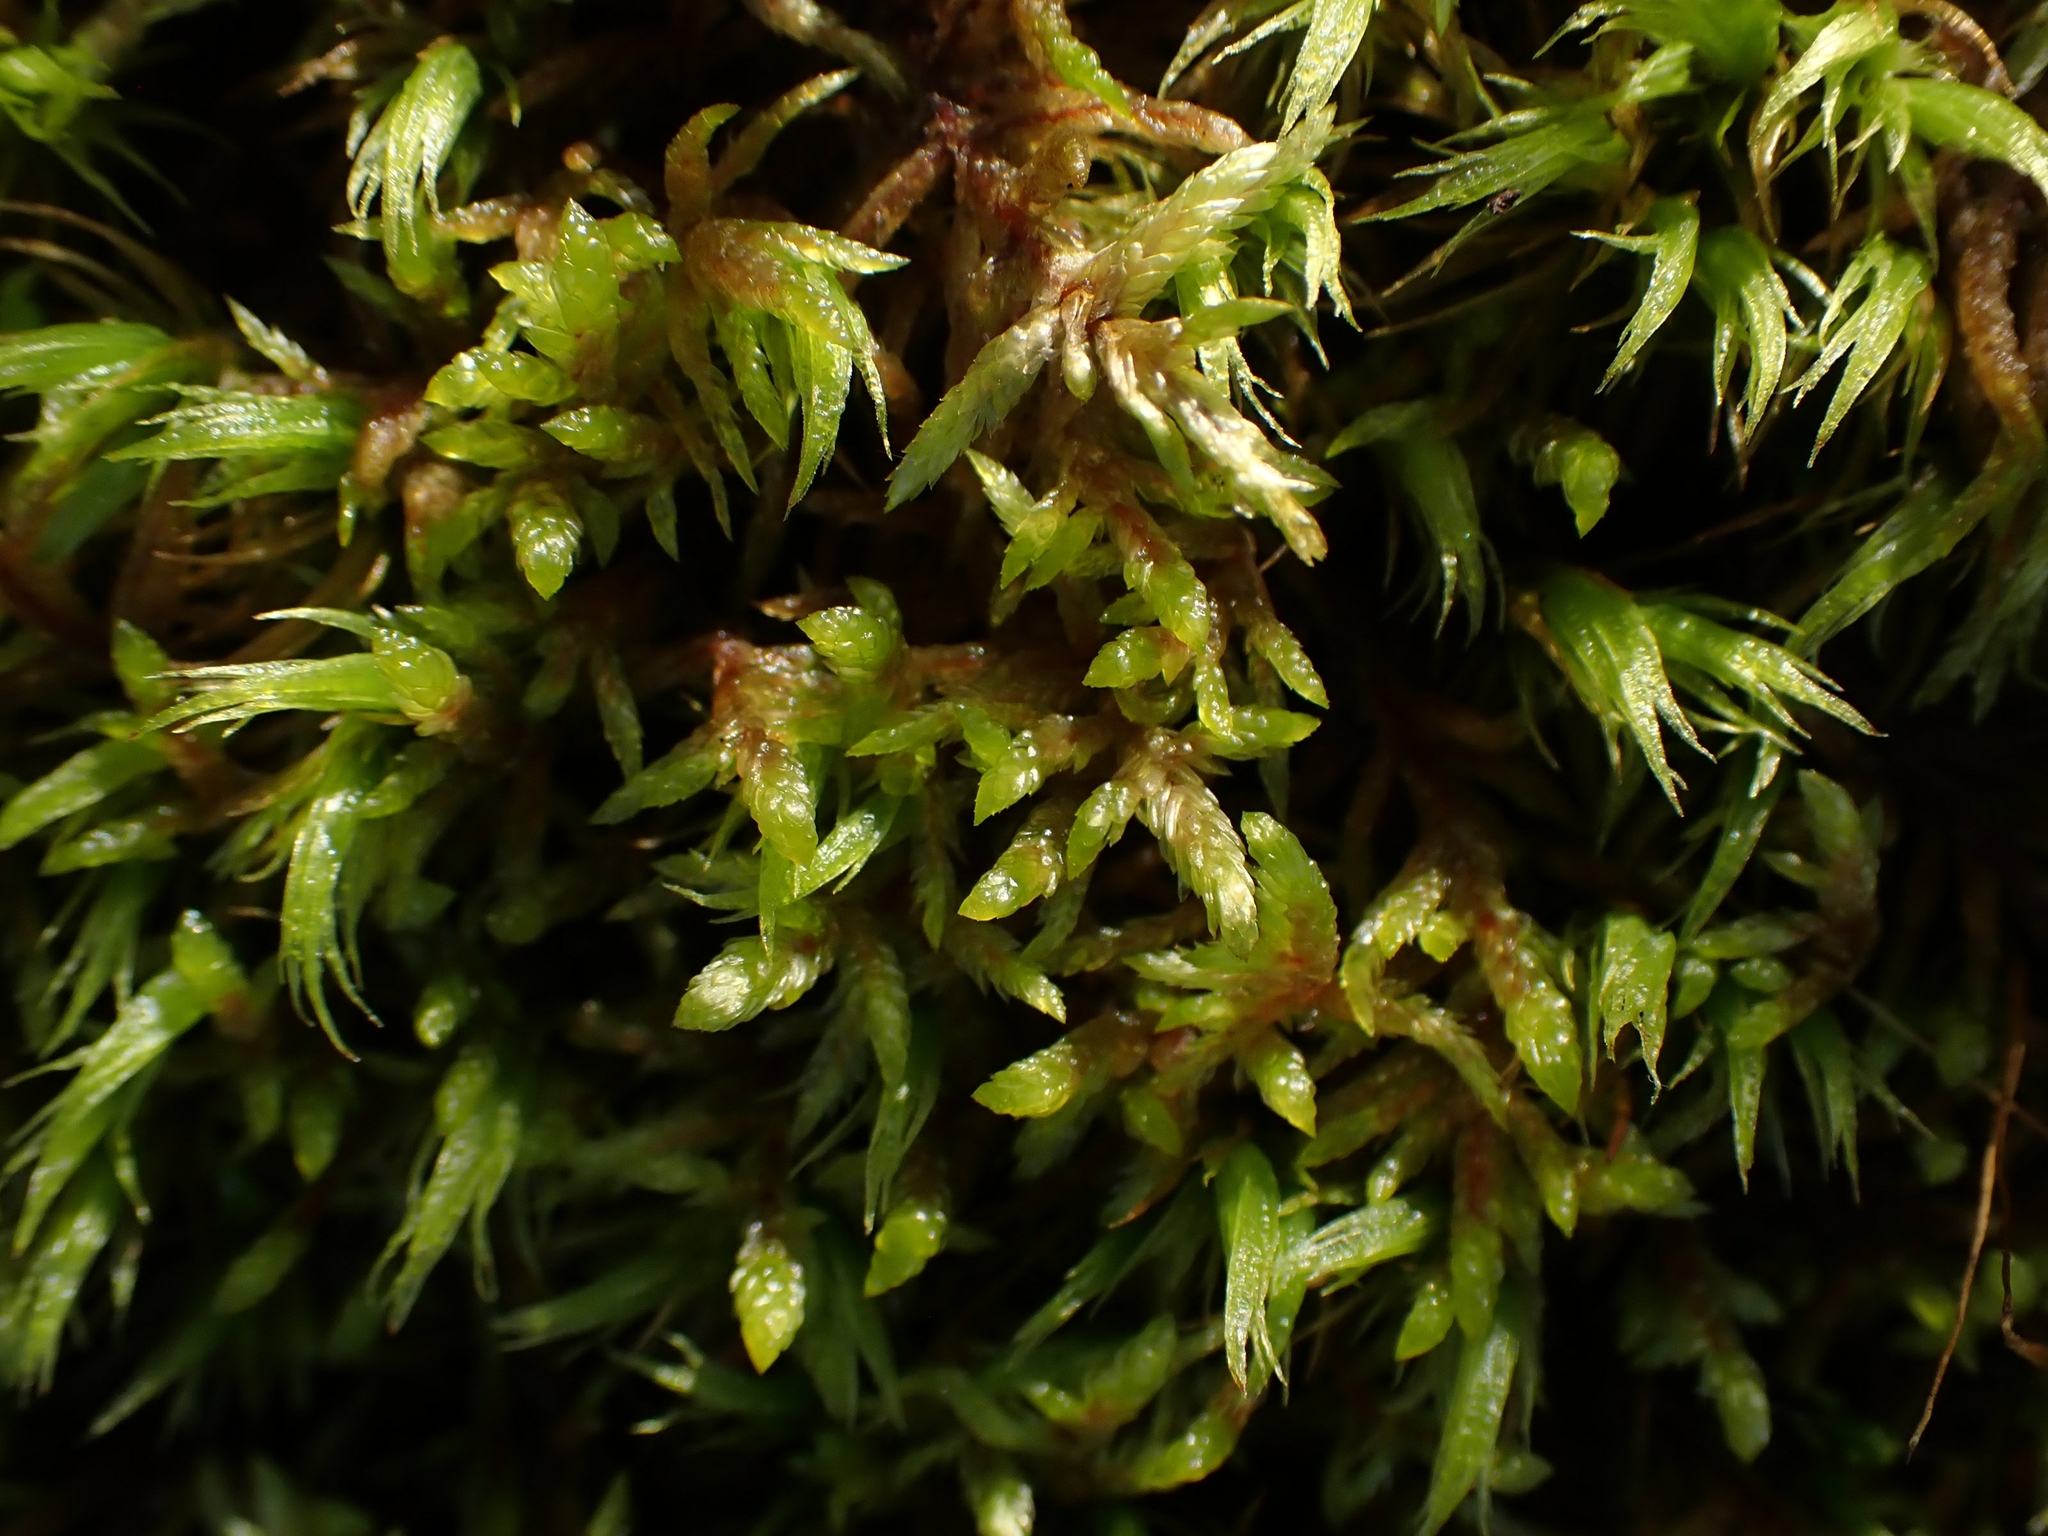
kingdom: Plantae
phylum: Bryophyta
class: Bryopsida
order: Hypnales
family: Hylocomiaceae
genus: Pleurozium
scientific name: Pleurozium schreberi
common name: Red-stemmed feather moss
